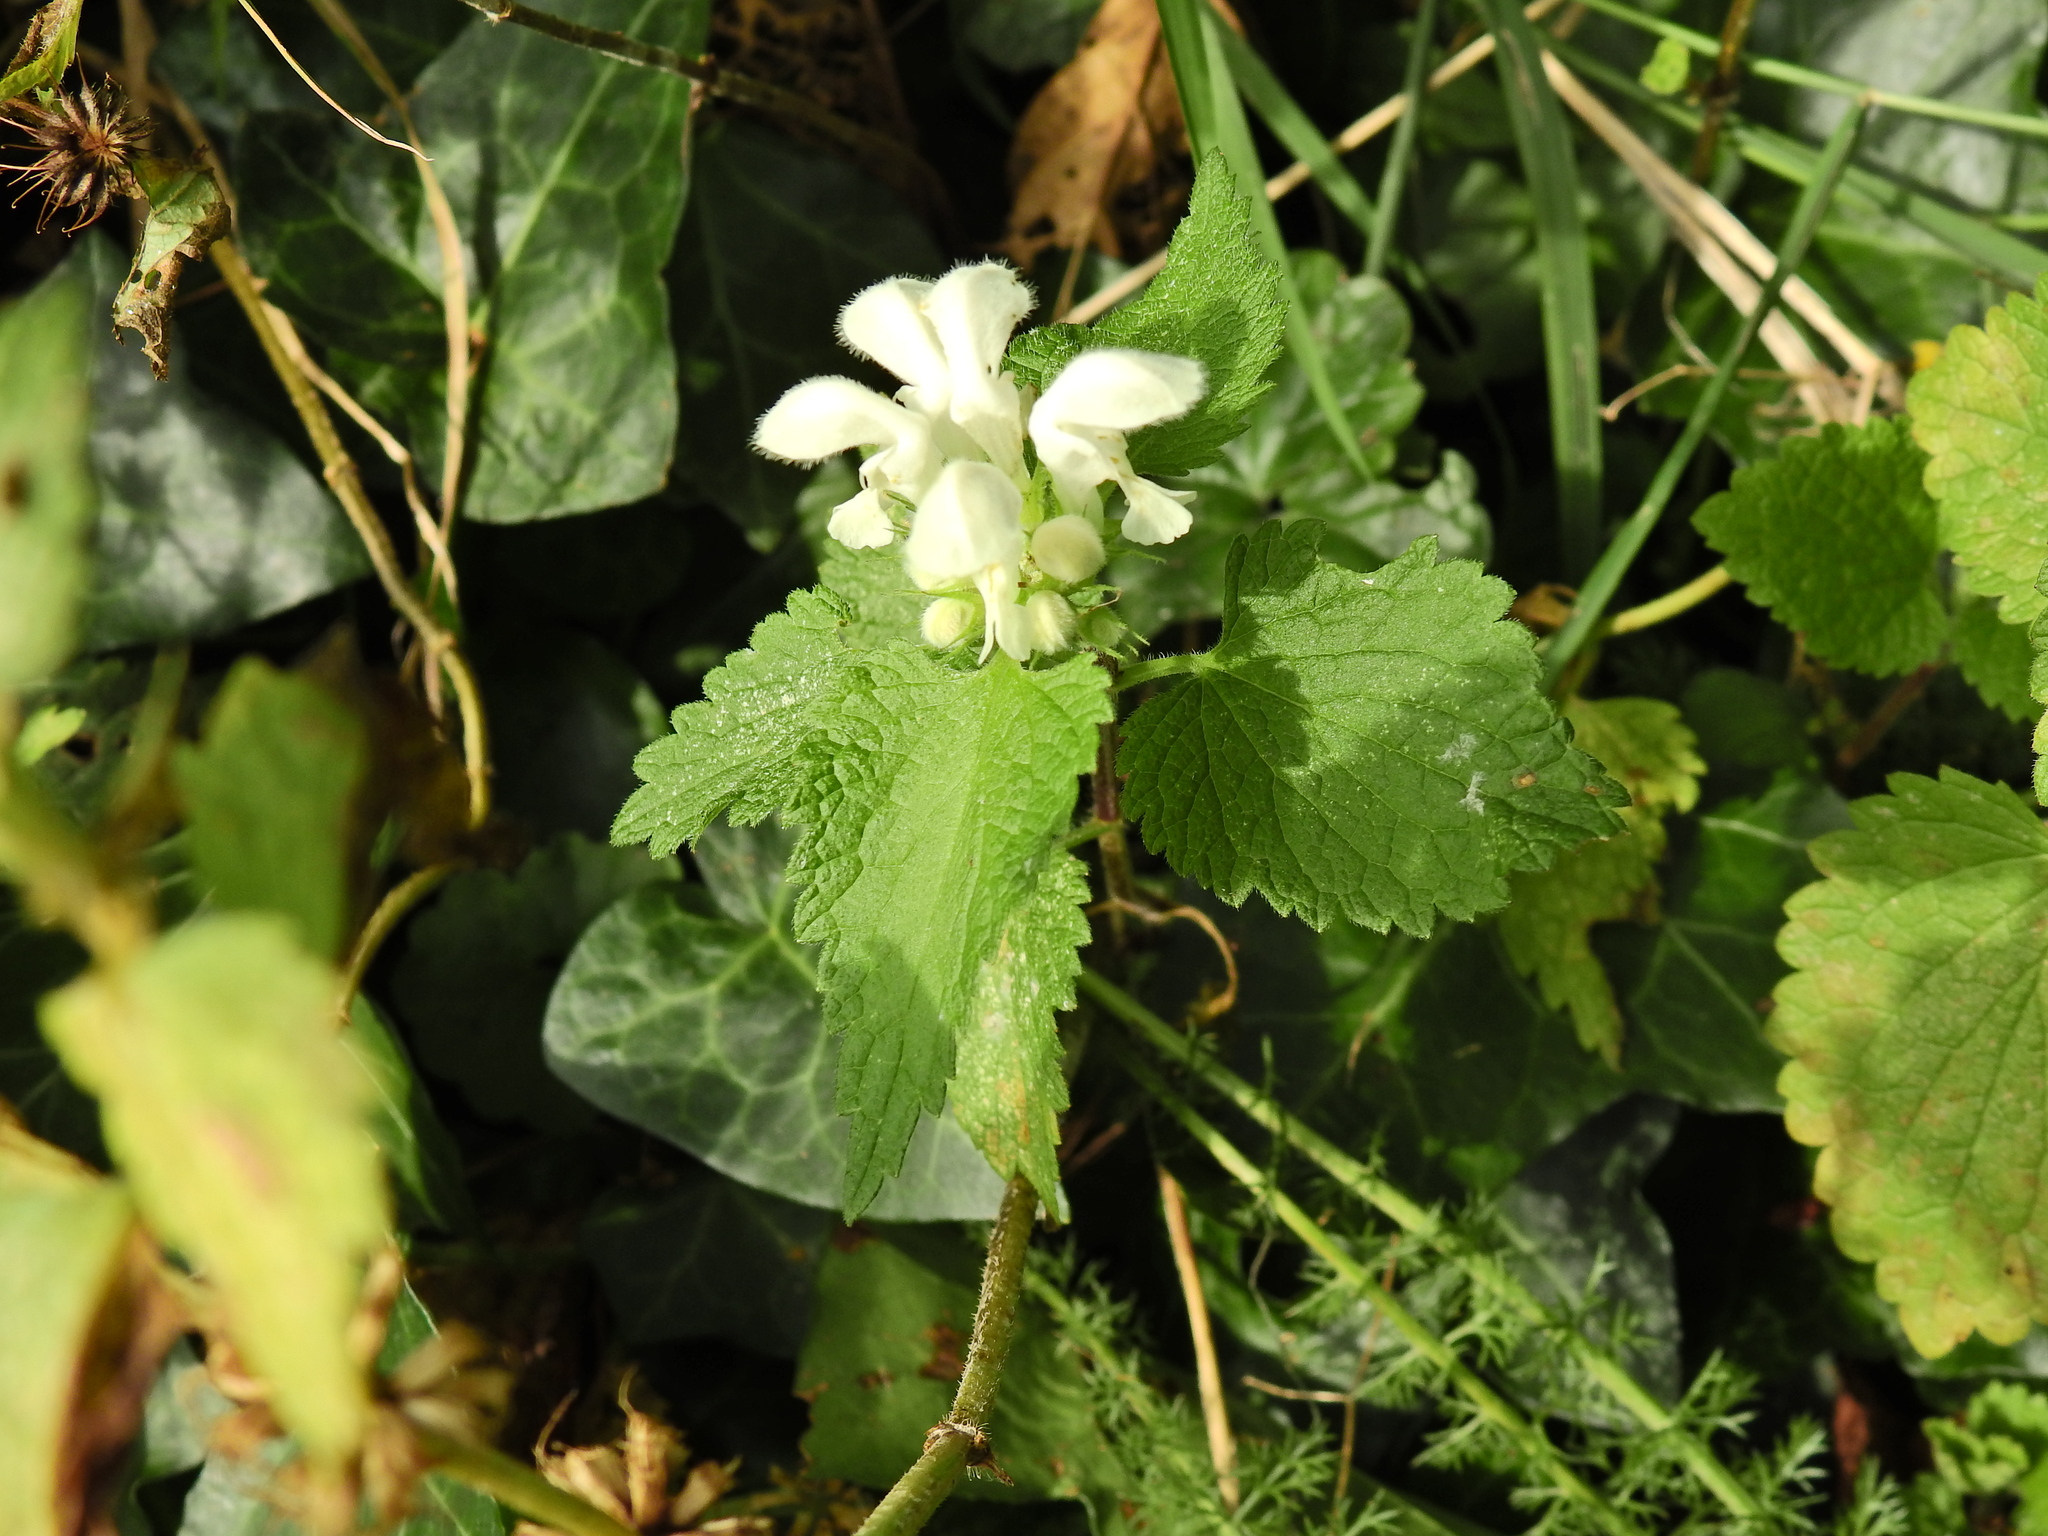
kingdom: Plantae
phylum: Tracheophyta
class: Magnoliopsida
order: Lamiales
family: Lamiaceae
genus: Lamium
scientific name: Lamium album
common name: White dead-nettle
